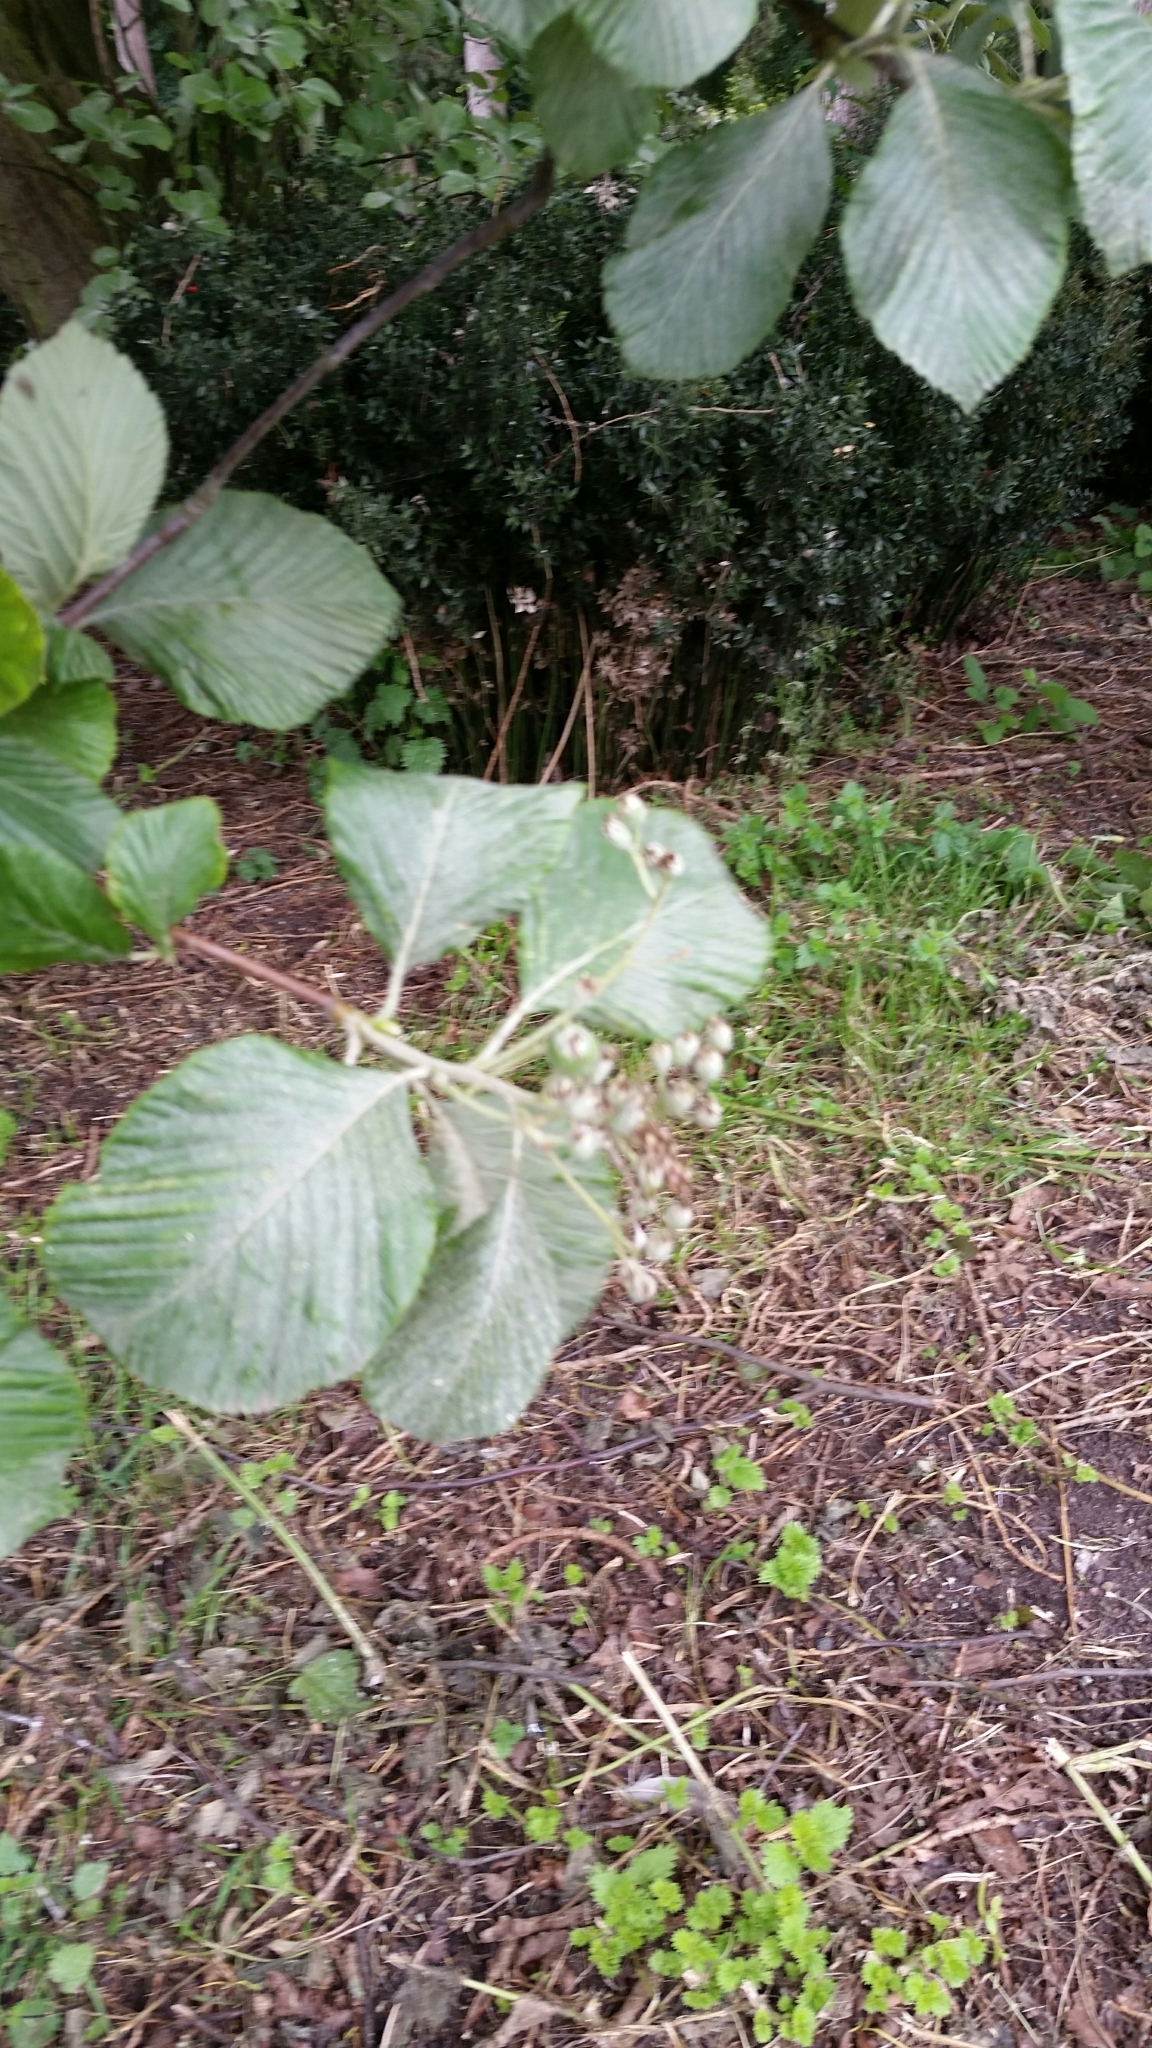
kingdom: Plantae
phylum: Tracheophyta
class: Magnoliopsida
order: Rosales
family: Rosaceae
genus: Aria
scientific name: Aria edulis
